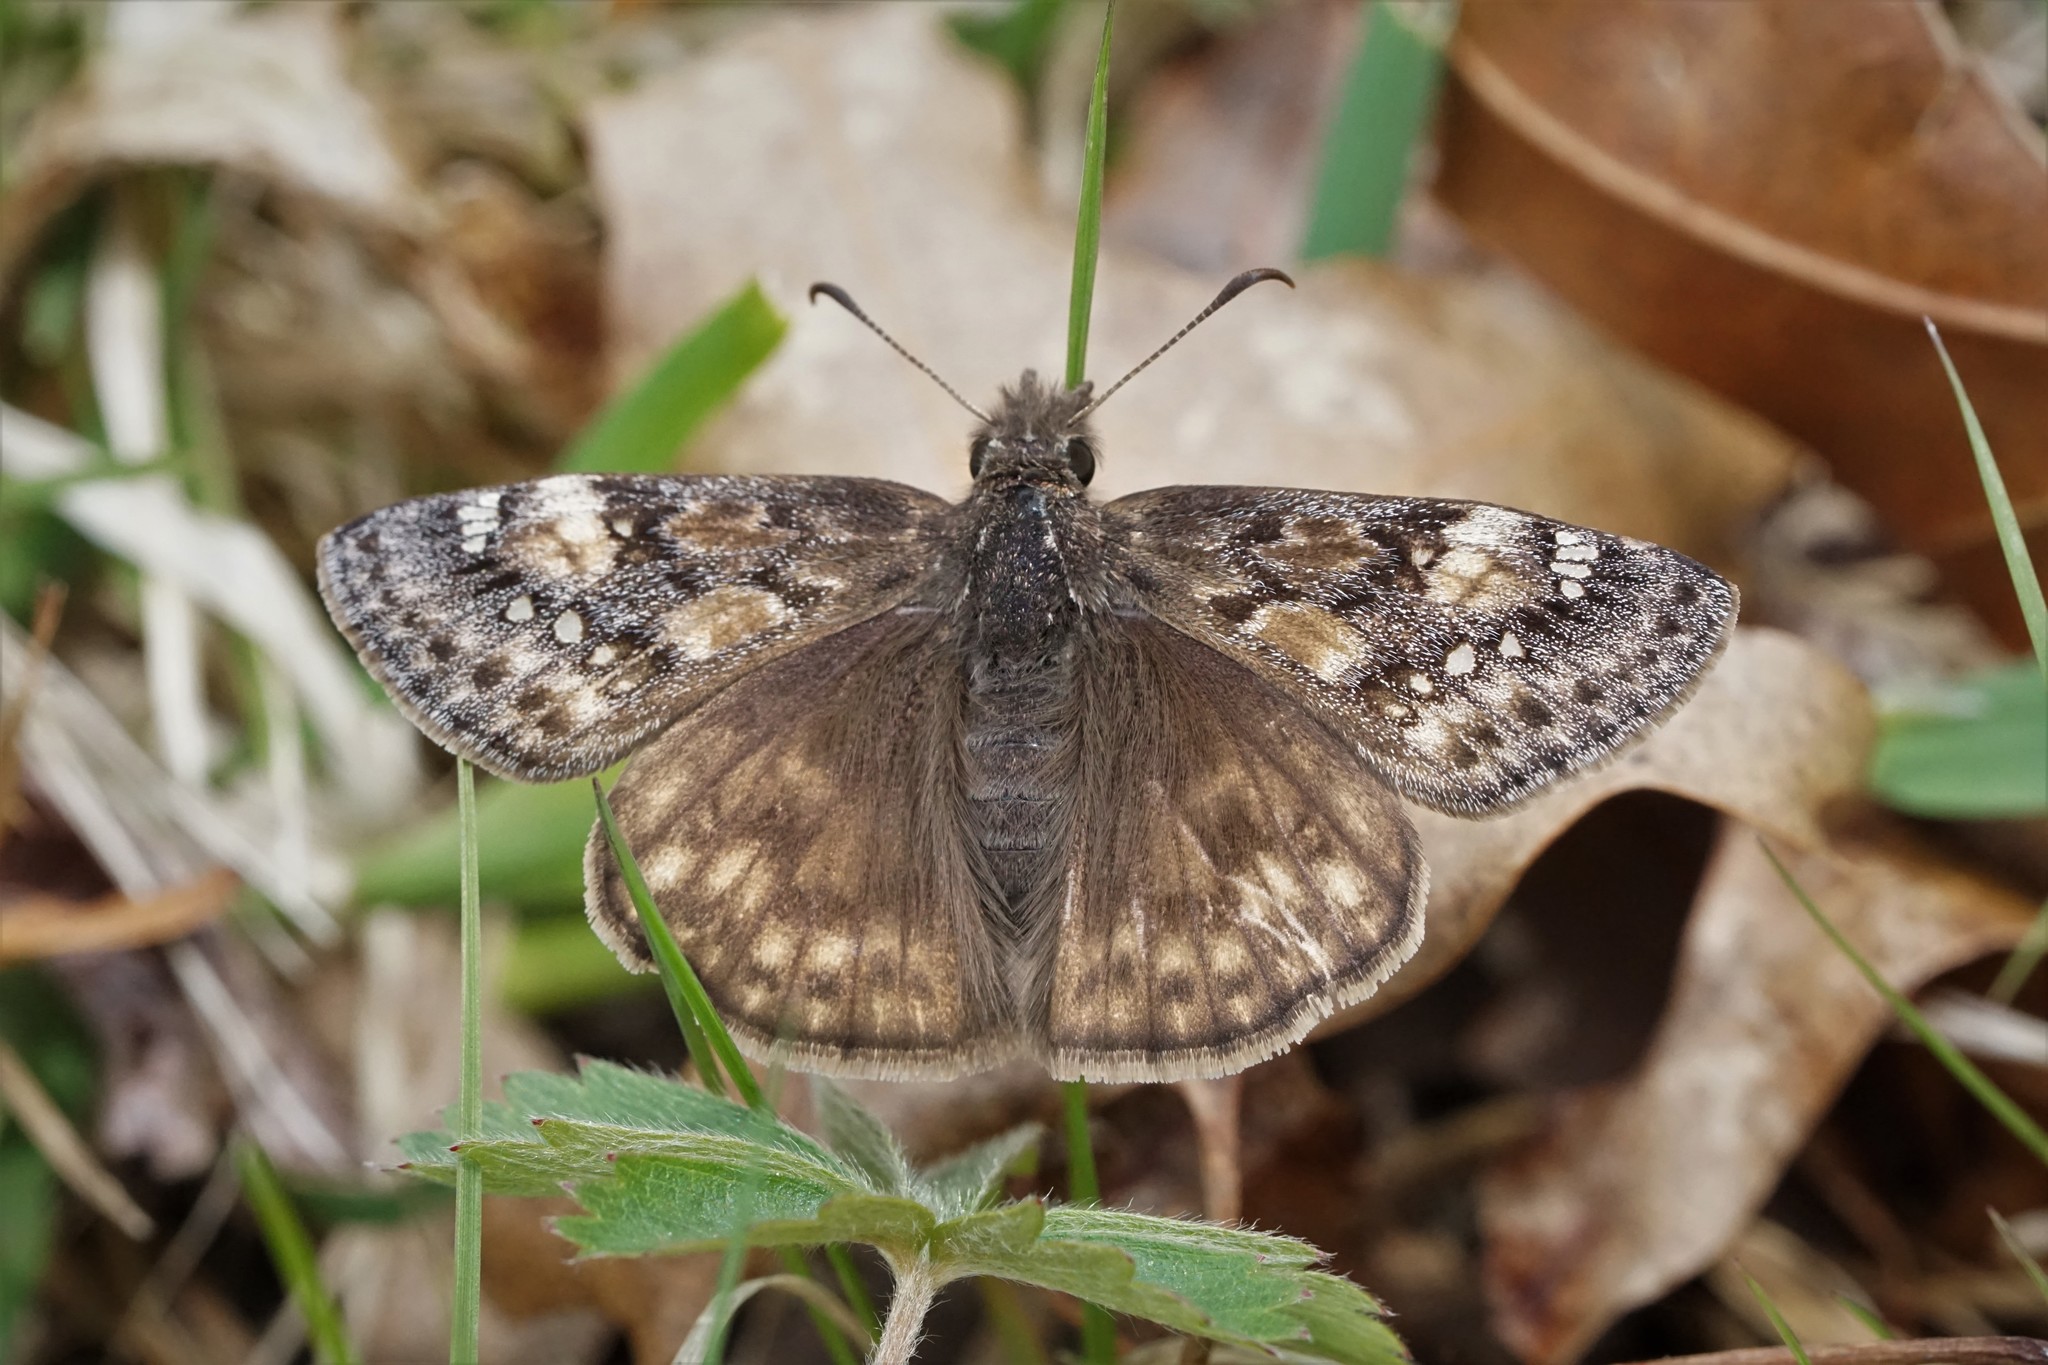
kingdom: Animalia
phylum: Arthropoda
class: Insecta
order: Lepidoptera
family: Hesperiidae
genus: Erynnis
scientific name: Erynnis juvenalis
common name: Juvenal's duskywing
